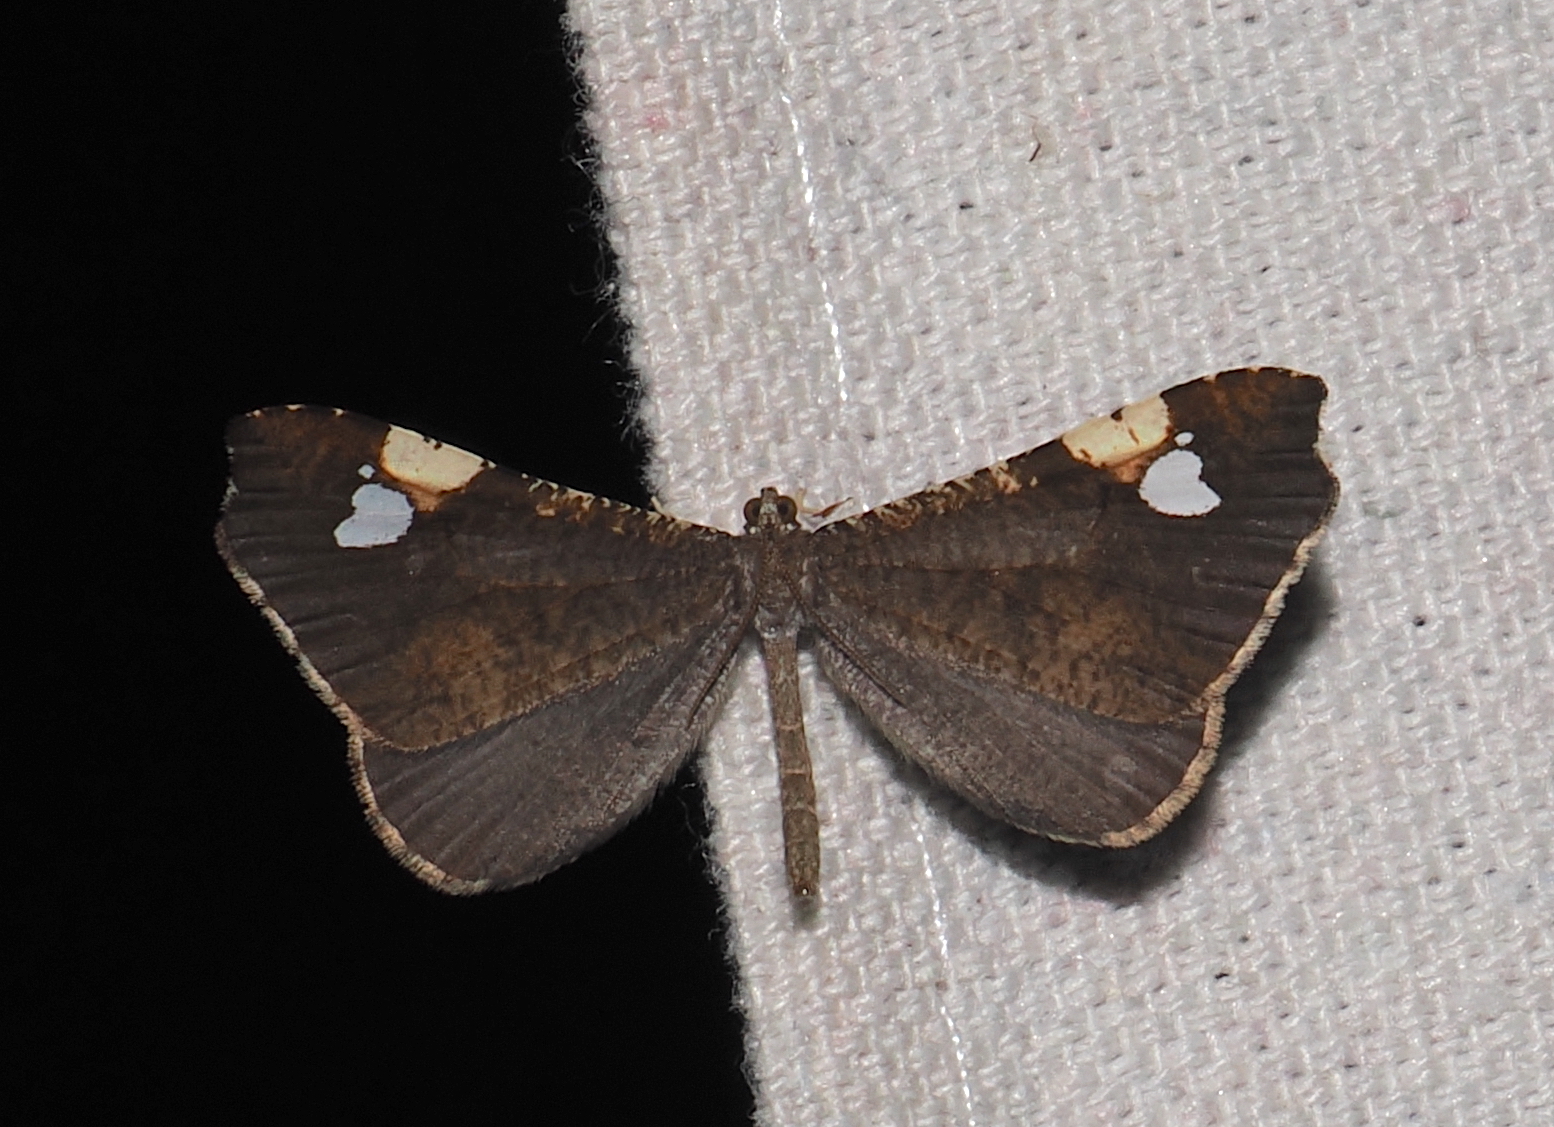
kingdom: Animalia
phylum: Arthropoda
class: Insecta
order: Lepidoptera
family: Hedylidae
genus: Macrosoma
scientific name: Macrosoma subornata
